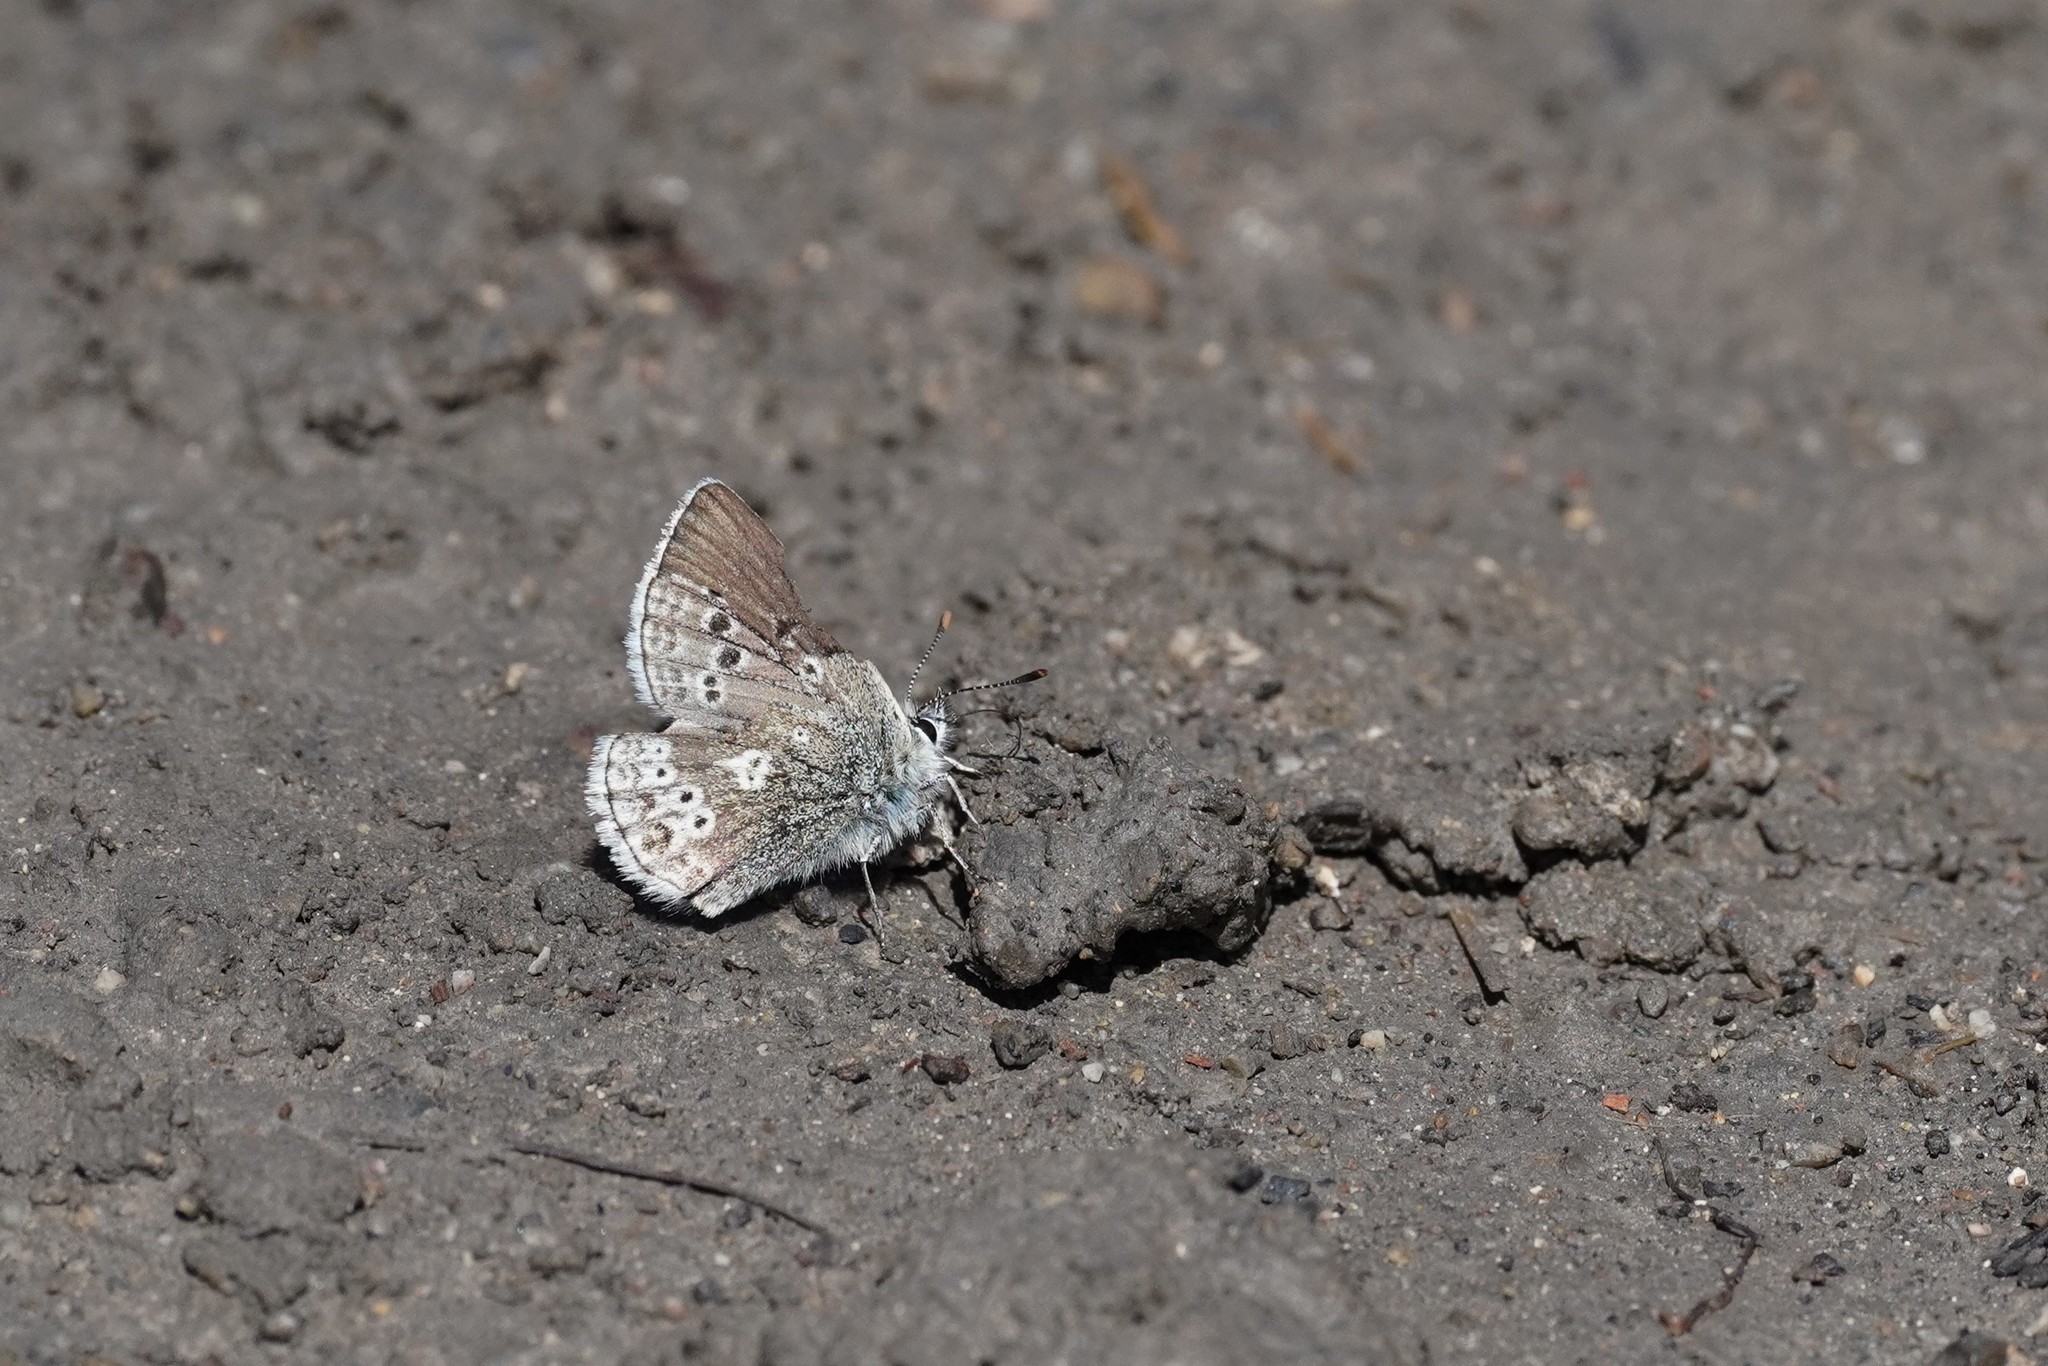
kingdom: Animalia
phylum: Arthropoda
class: Insecta
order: Lepidoptera
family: Lycaenidae
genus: Agriades
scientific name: Agriades glandon
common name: Glandon blue
